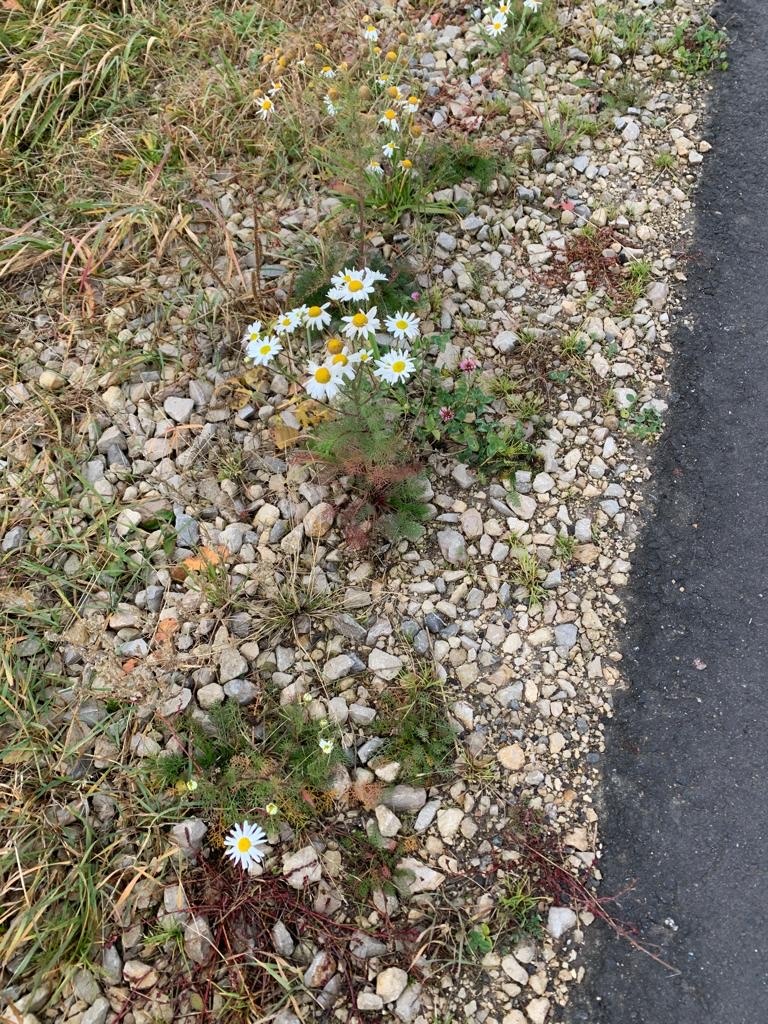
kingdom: Plantae
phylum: Tracheophyta
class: Magnoliopsida
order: Asterales
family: Asteraceae
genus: Tripleurospermum
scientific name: Tripleurospermum inodorum
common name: Scentless mayweed
